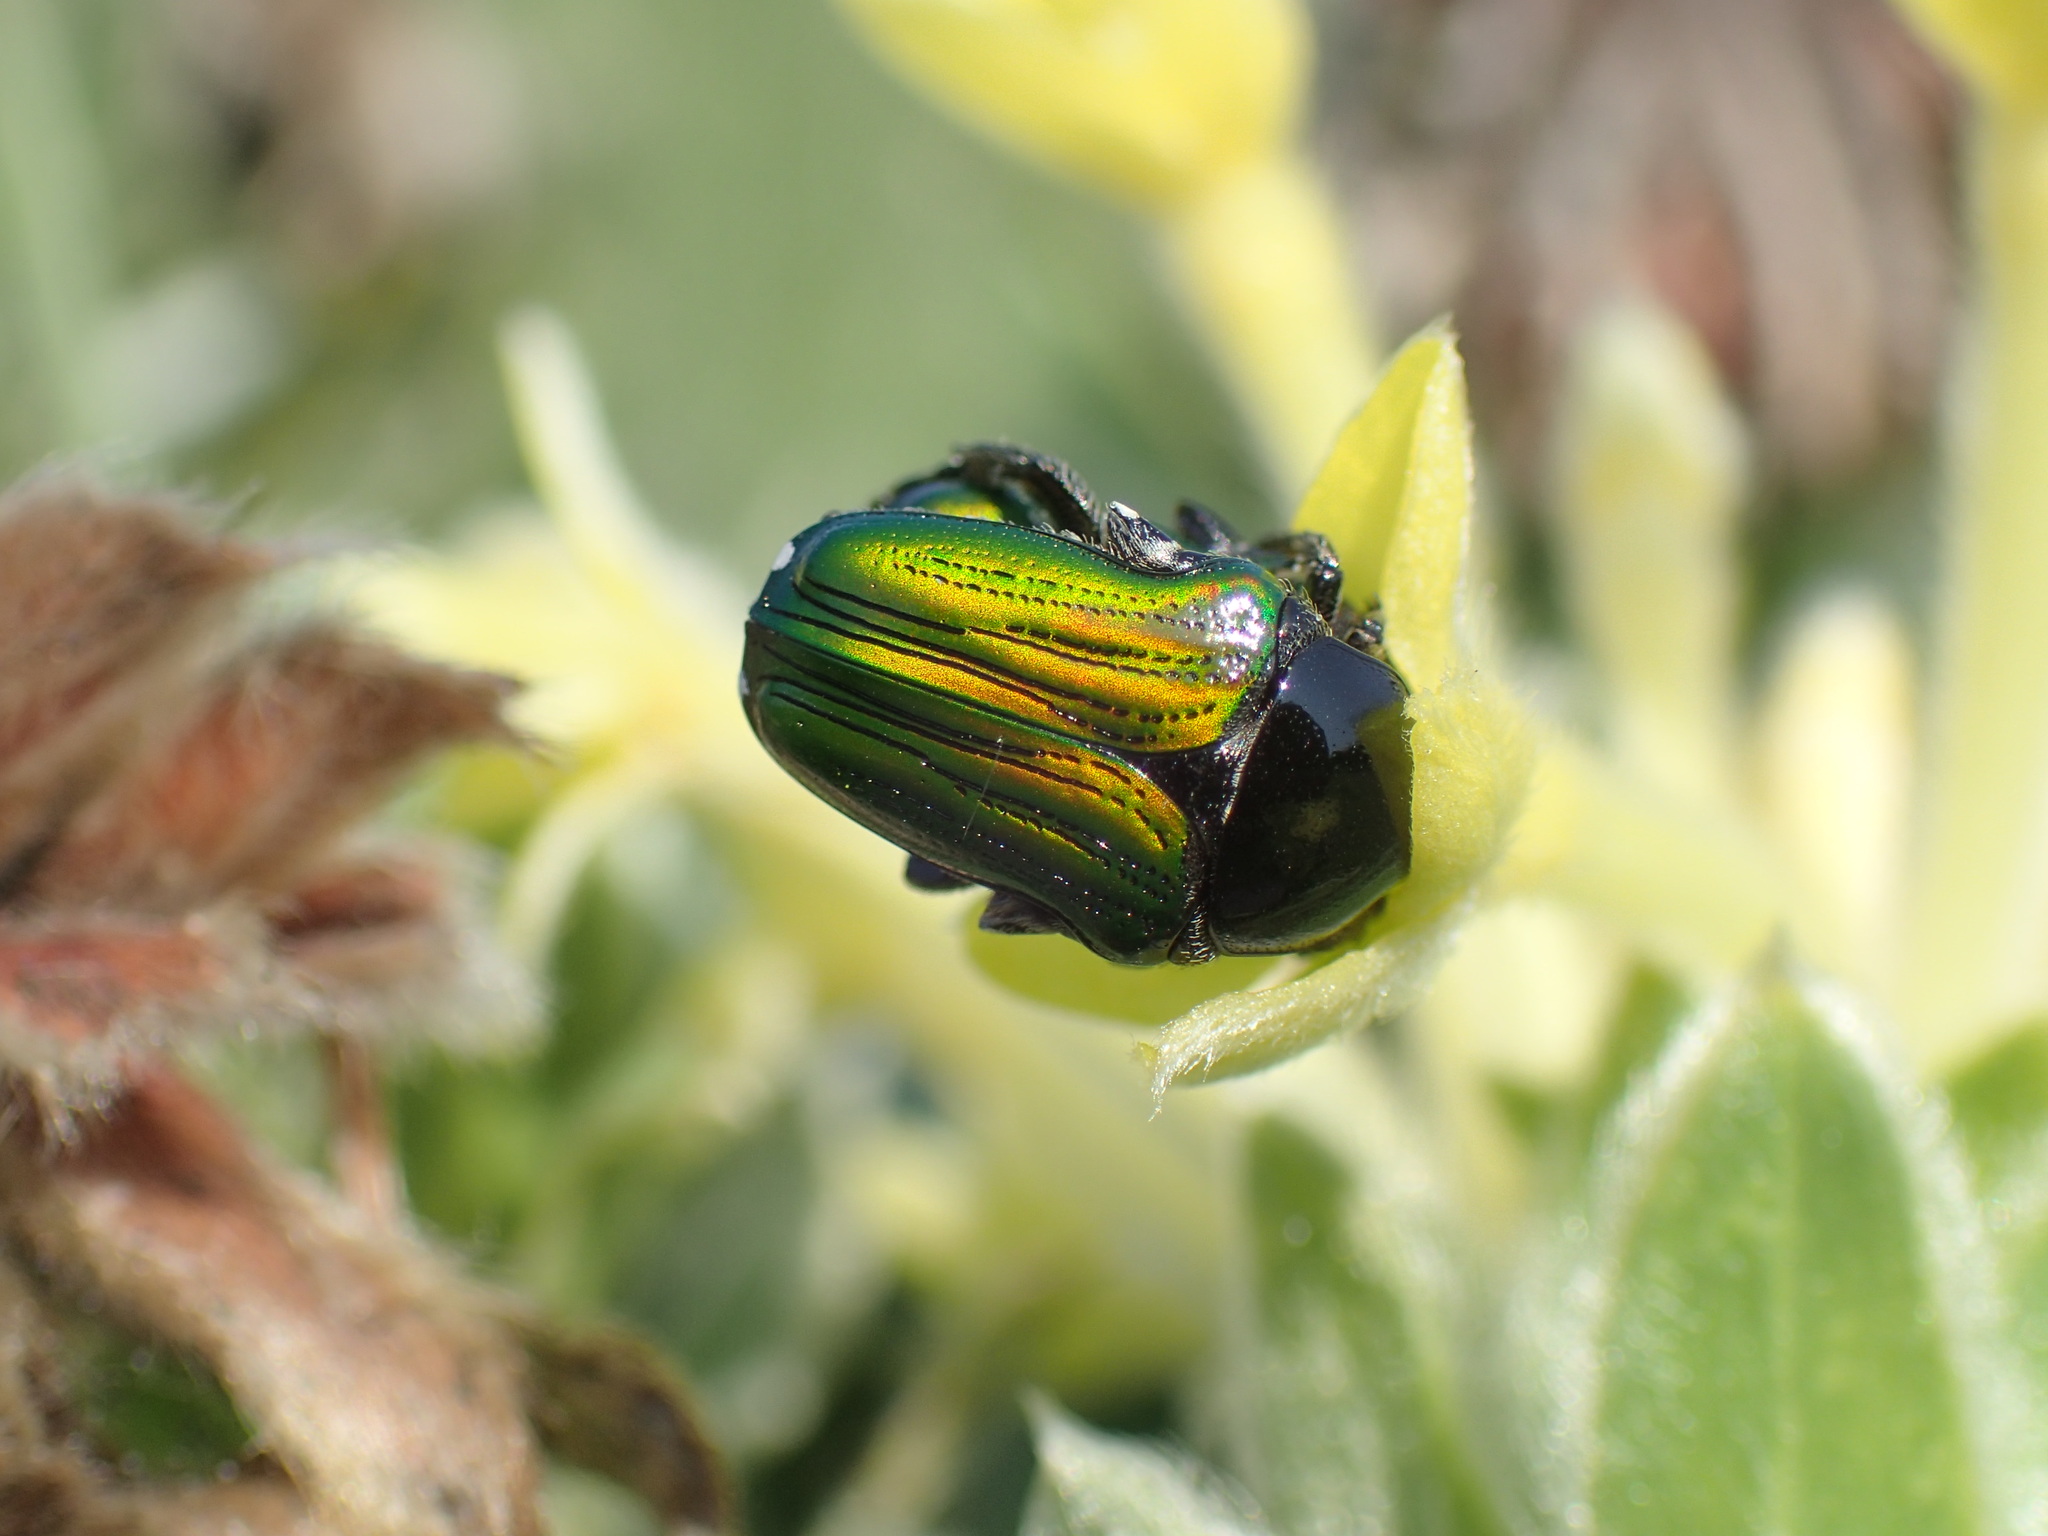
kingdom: Animalia
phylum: Arthropoda
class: Insecta
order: Coleoptera
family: Scarabaeidae
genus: Leucocelis
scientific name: Leucocelis haemorrhoidalis
